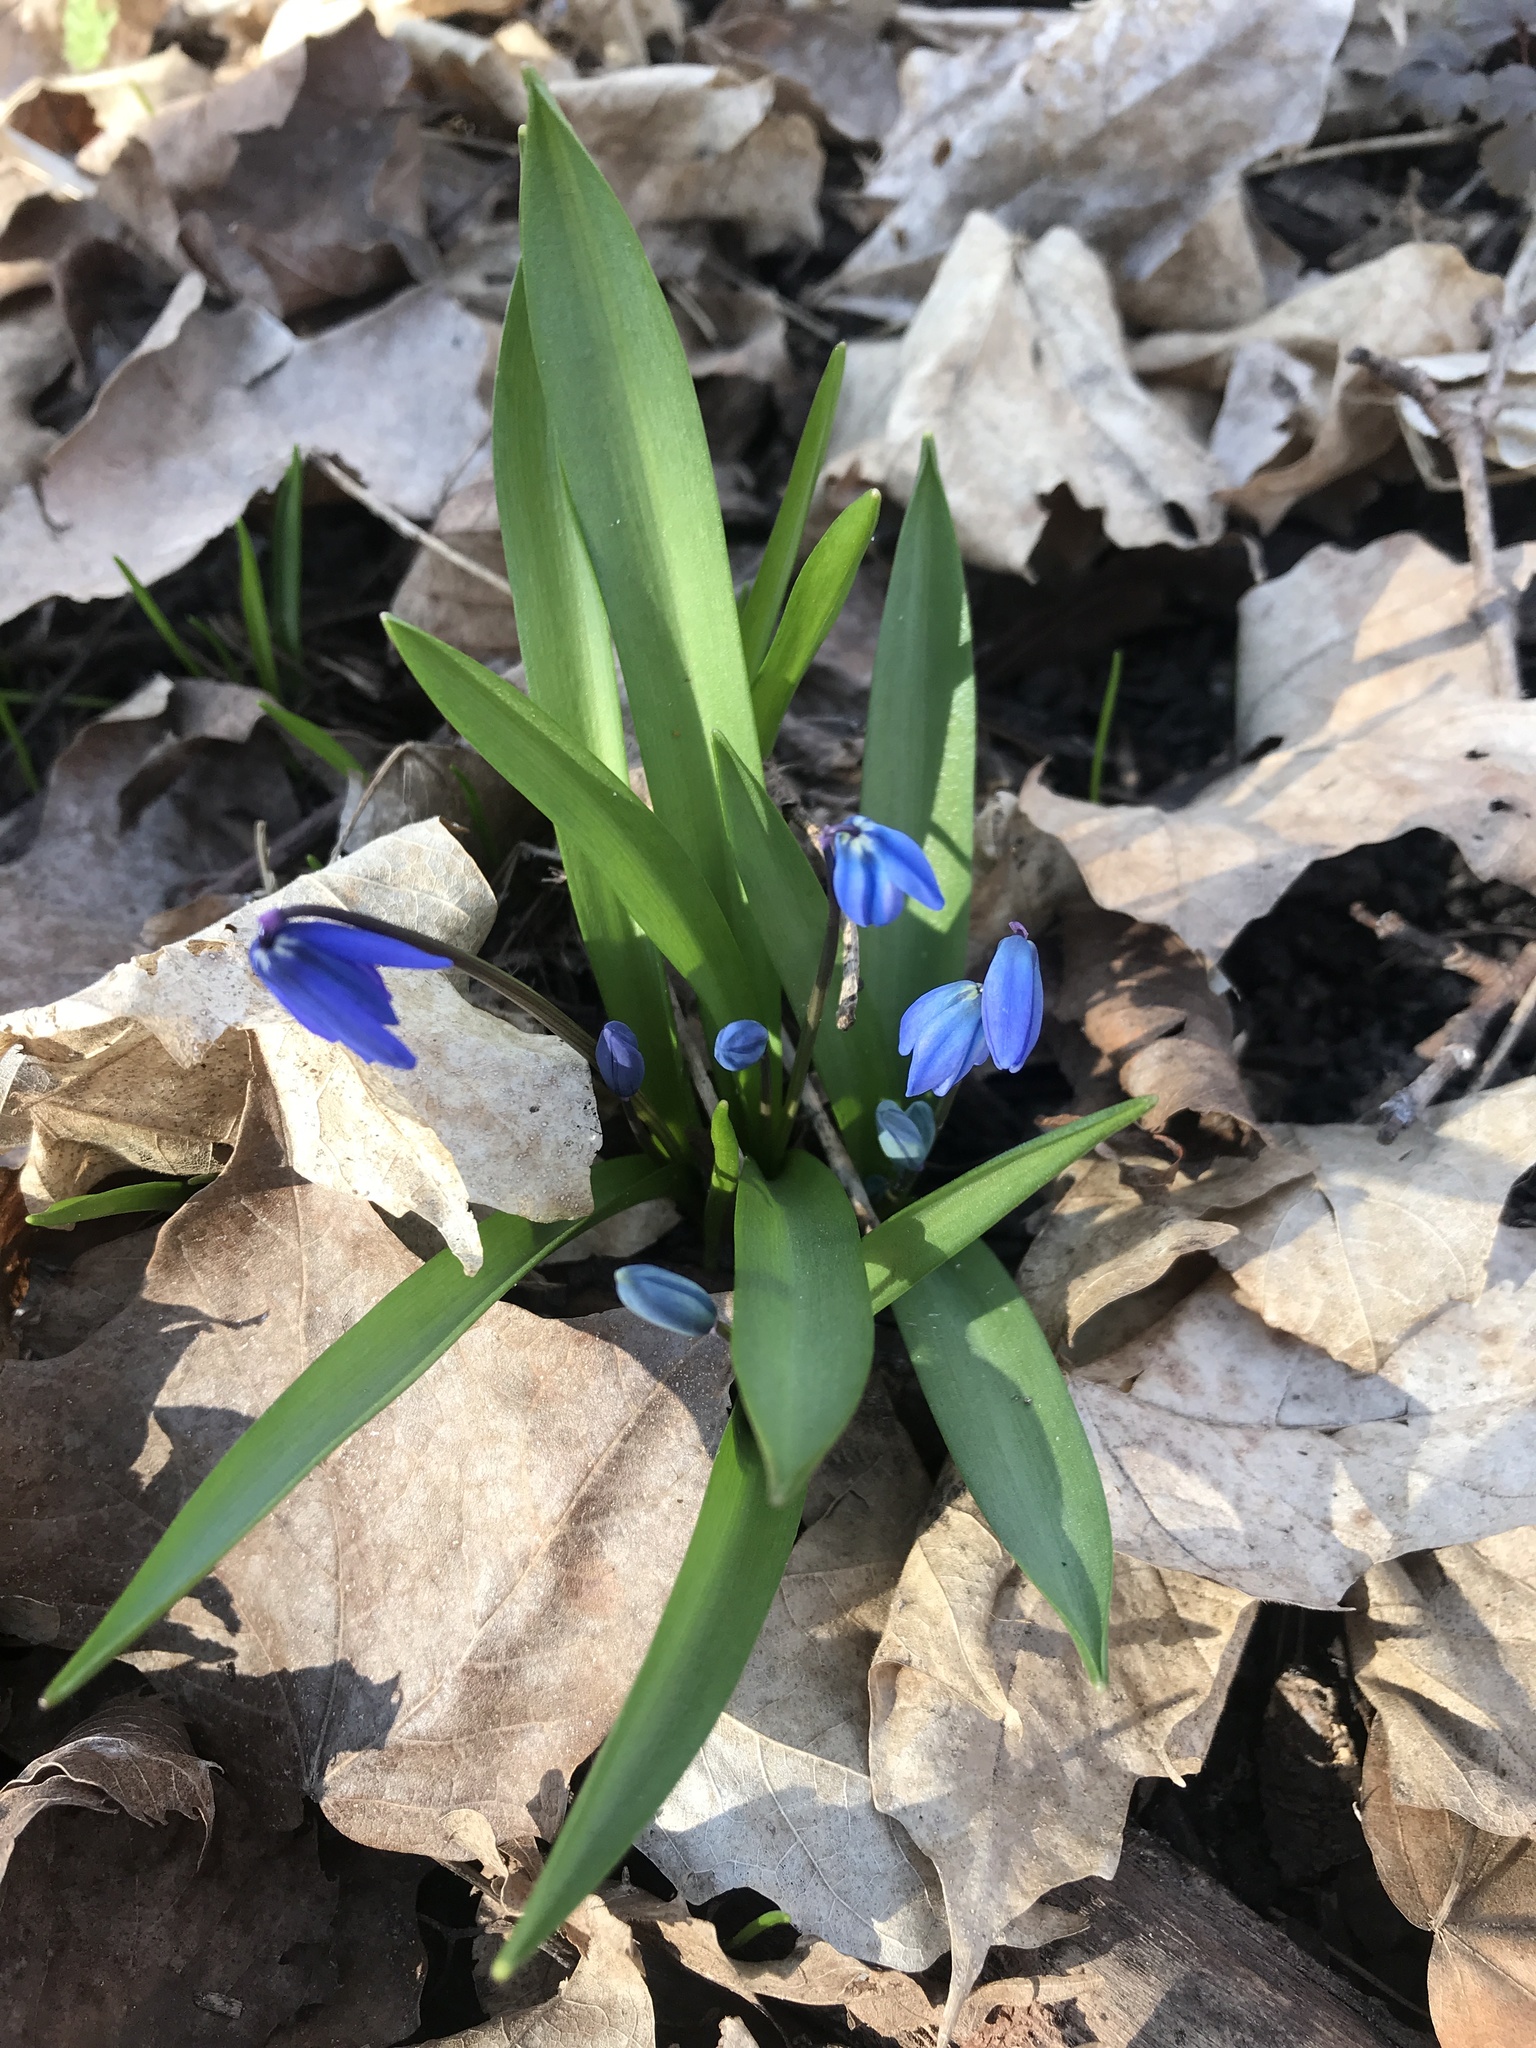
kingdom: Plantae
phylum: Tracheophyta
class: Liliopsida
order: Asparagales
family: Asparagaceae
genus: Scilla
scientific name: Scilla siberica
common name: Siberian squill
